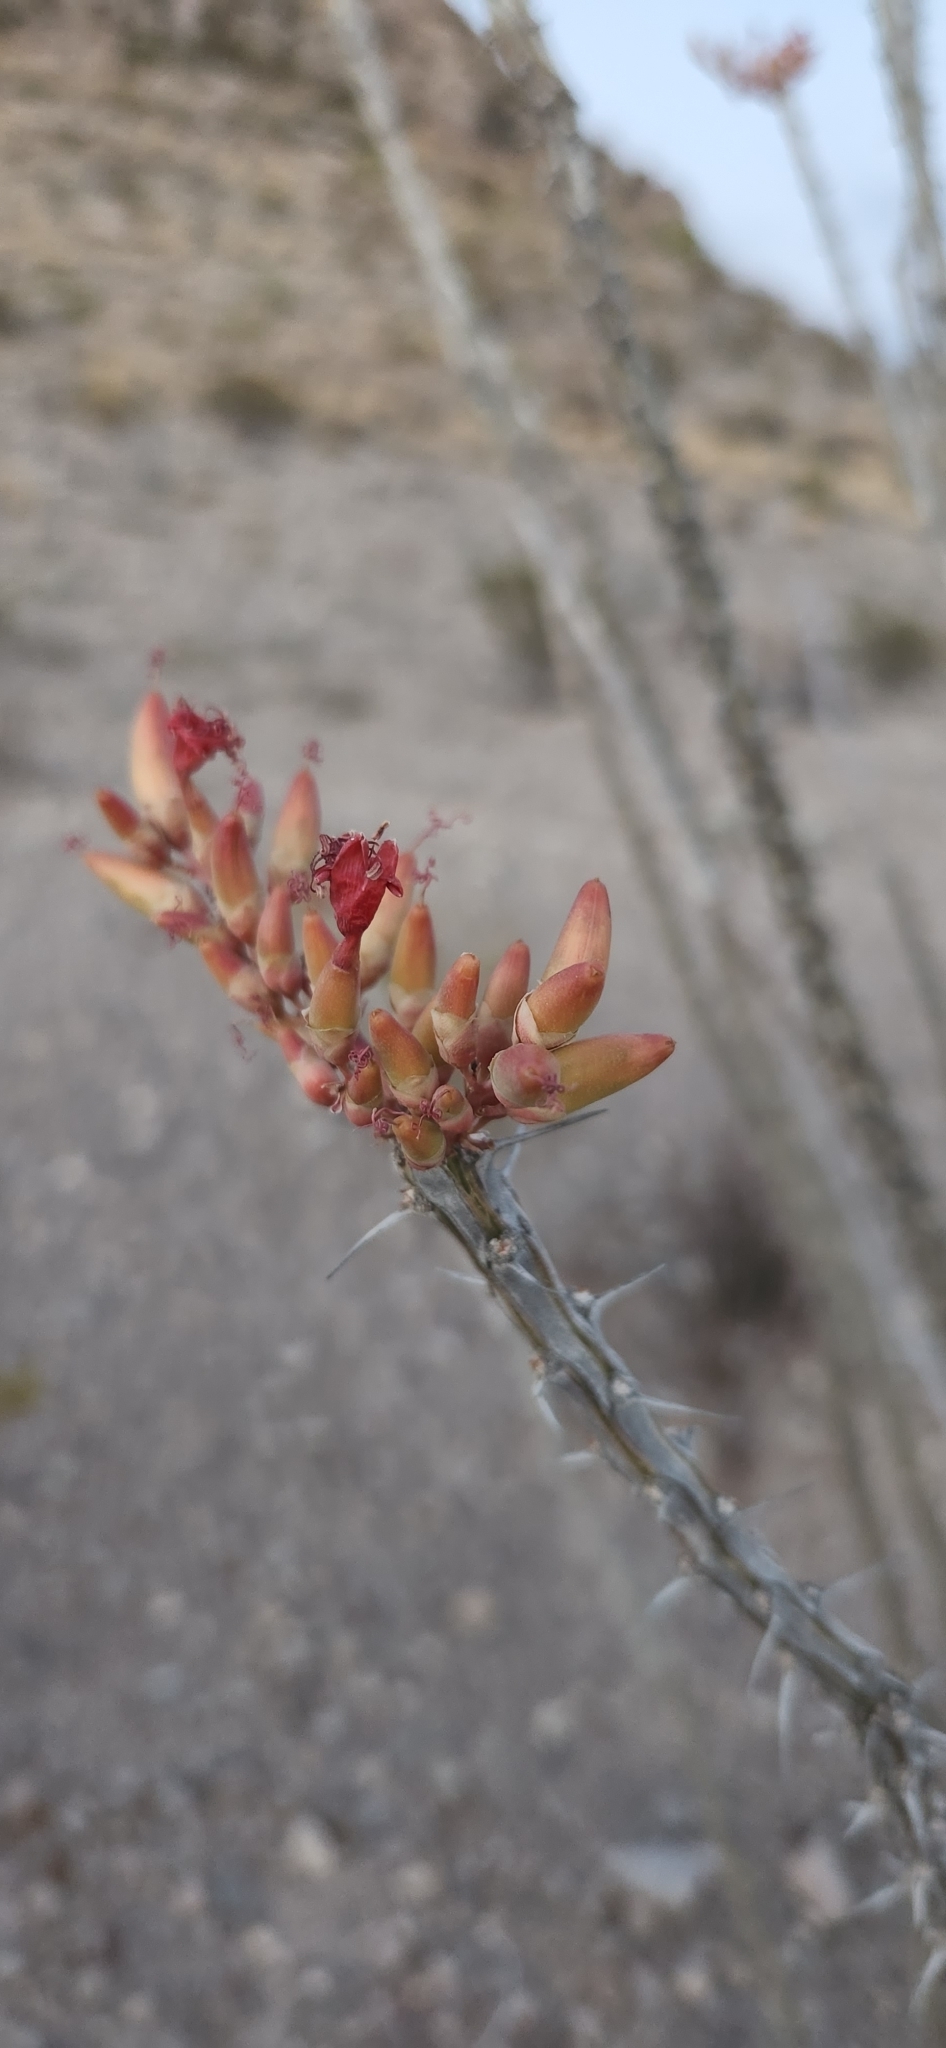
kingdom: Plantae
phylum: Tracheophyta
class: Magnoliopsida
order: Ericales
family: Fouquieriaceae
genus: Fouquieria
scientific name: Fouquieria splendens
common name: Vine-cactus
